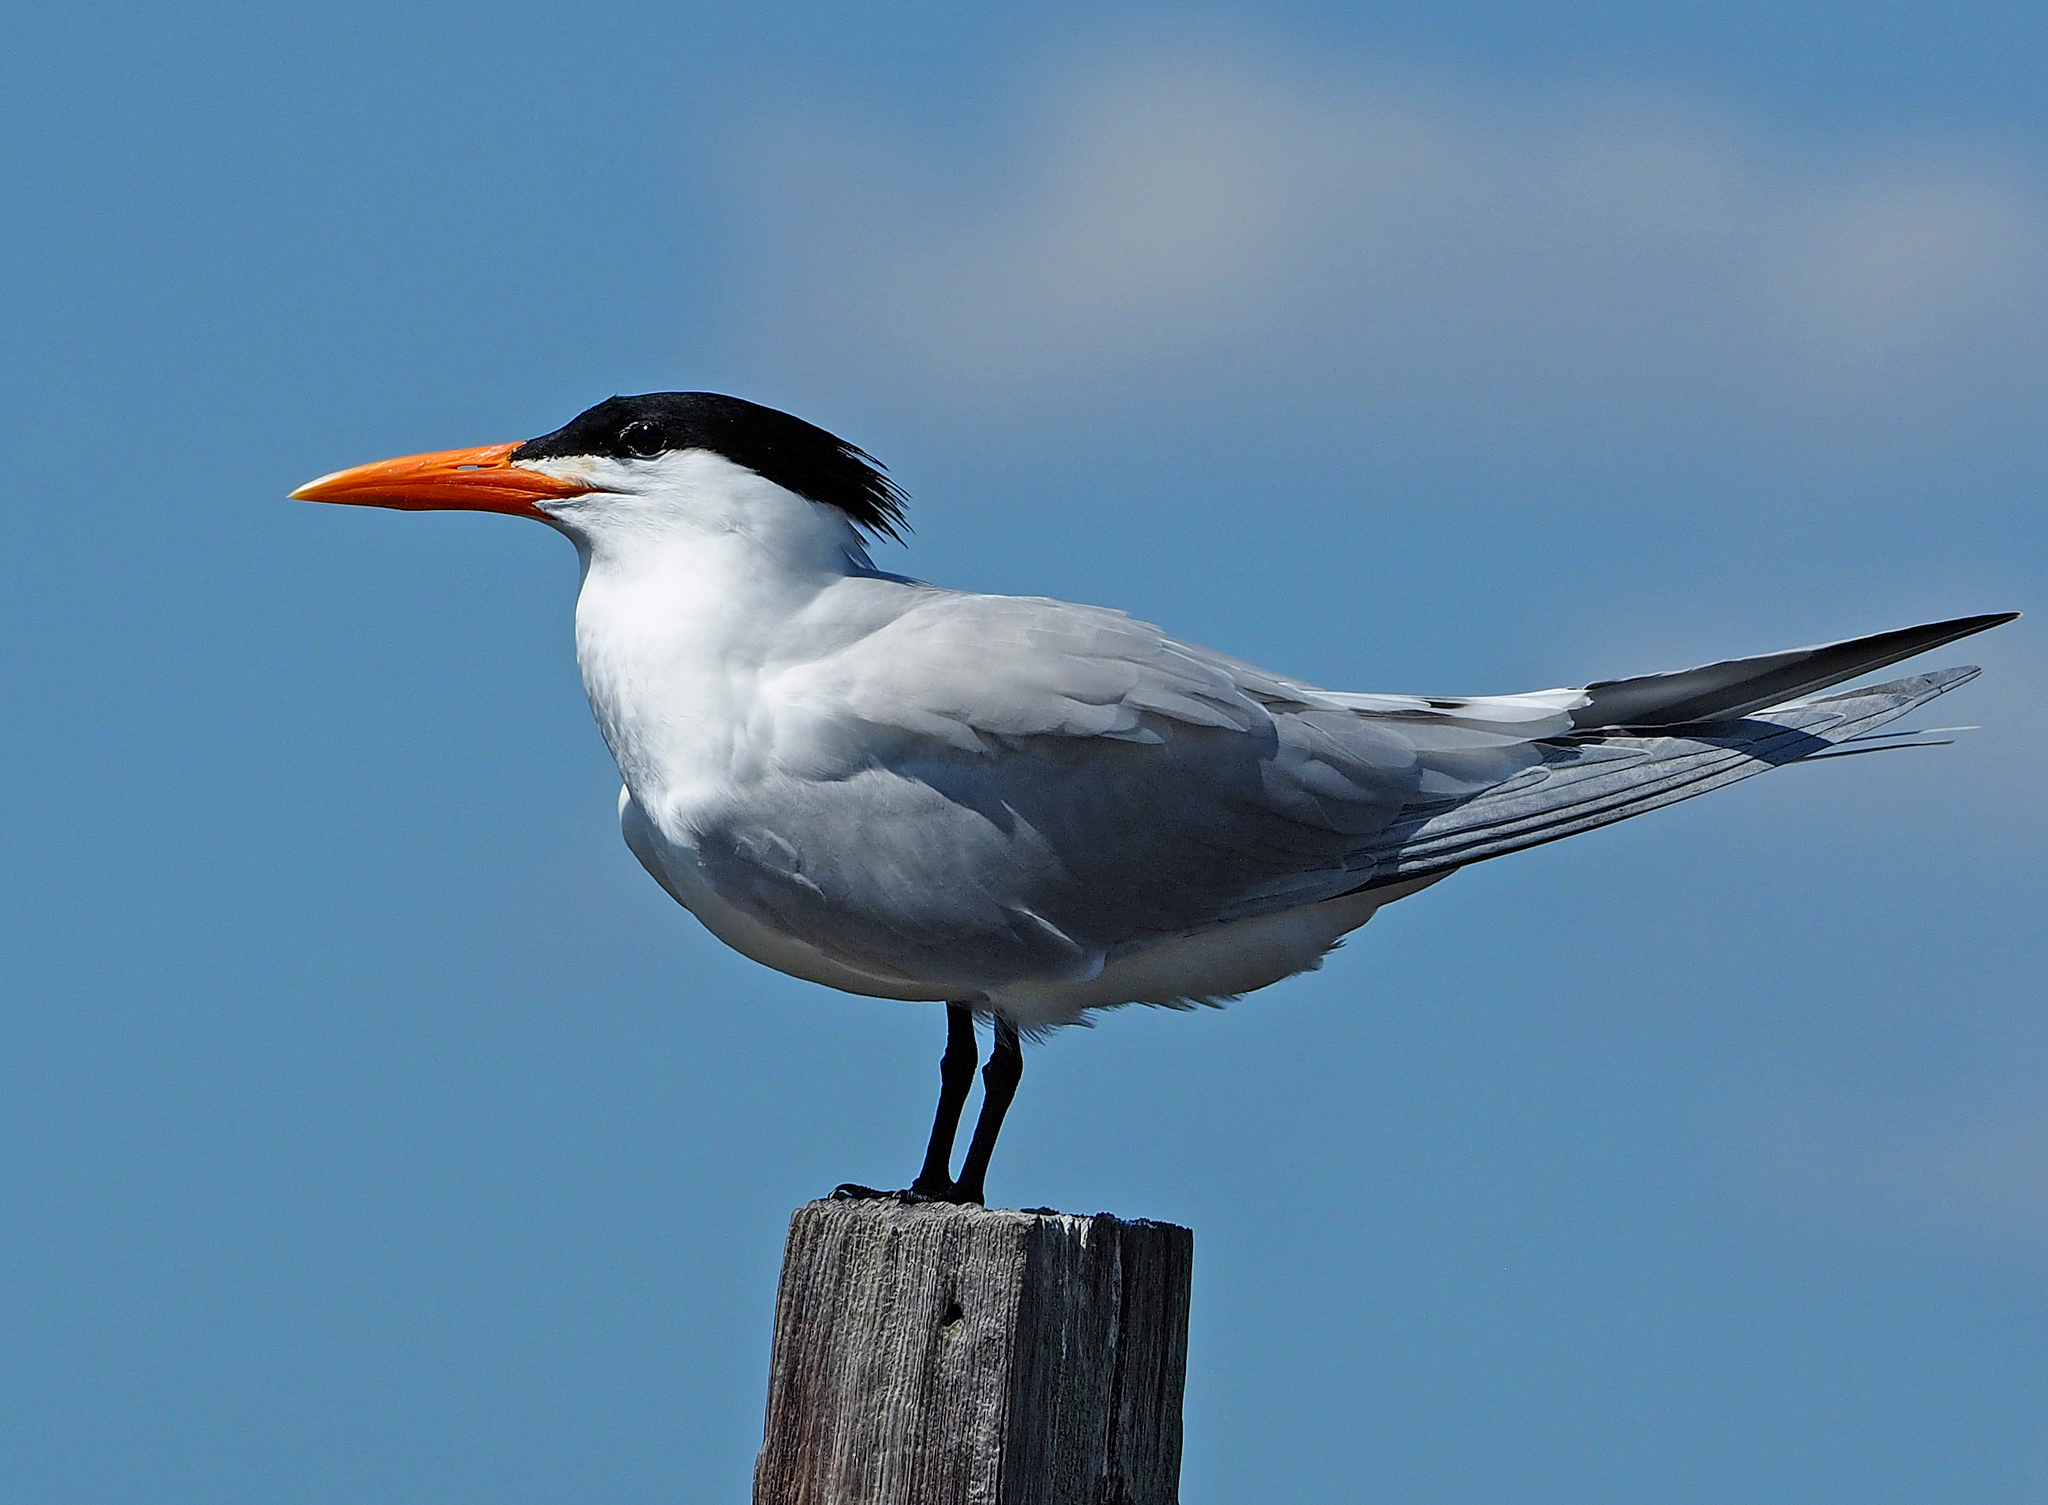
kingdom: Animalia
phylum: Chordata
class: Aves
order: Charadriiformes
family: Laridae
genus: Thalasseus
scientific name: Thalasseus maximus
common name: Royal tern
